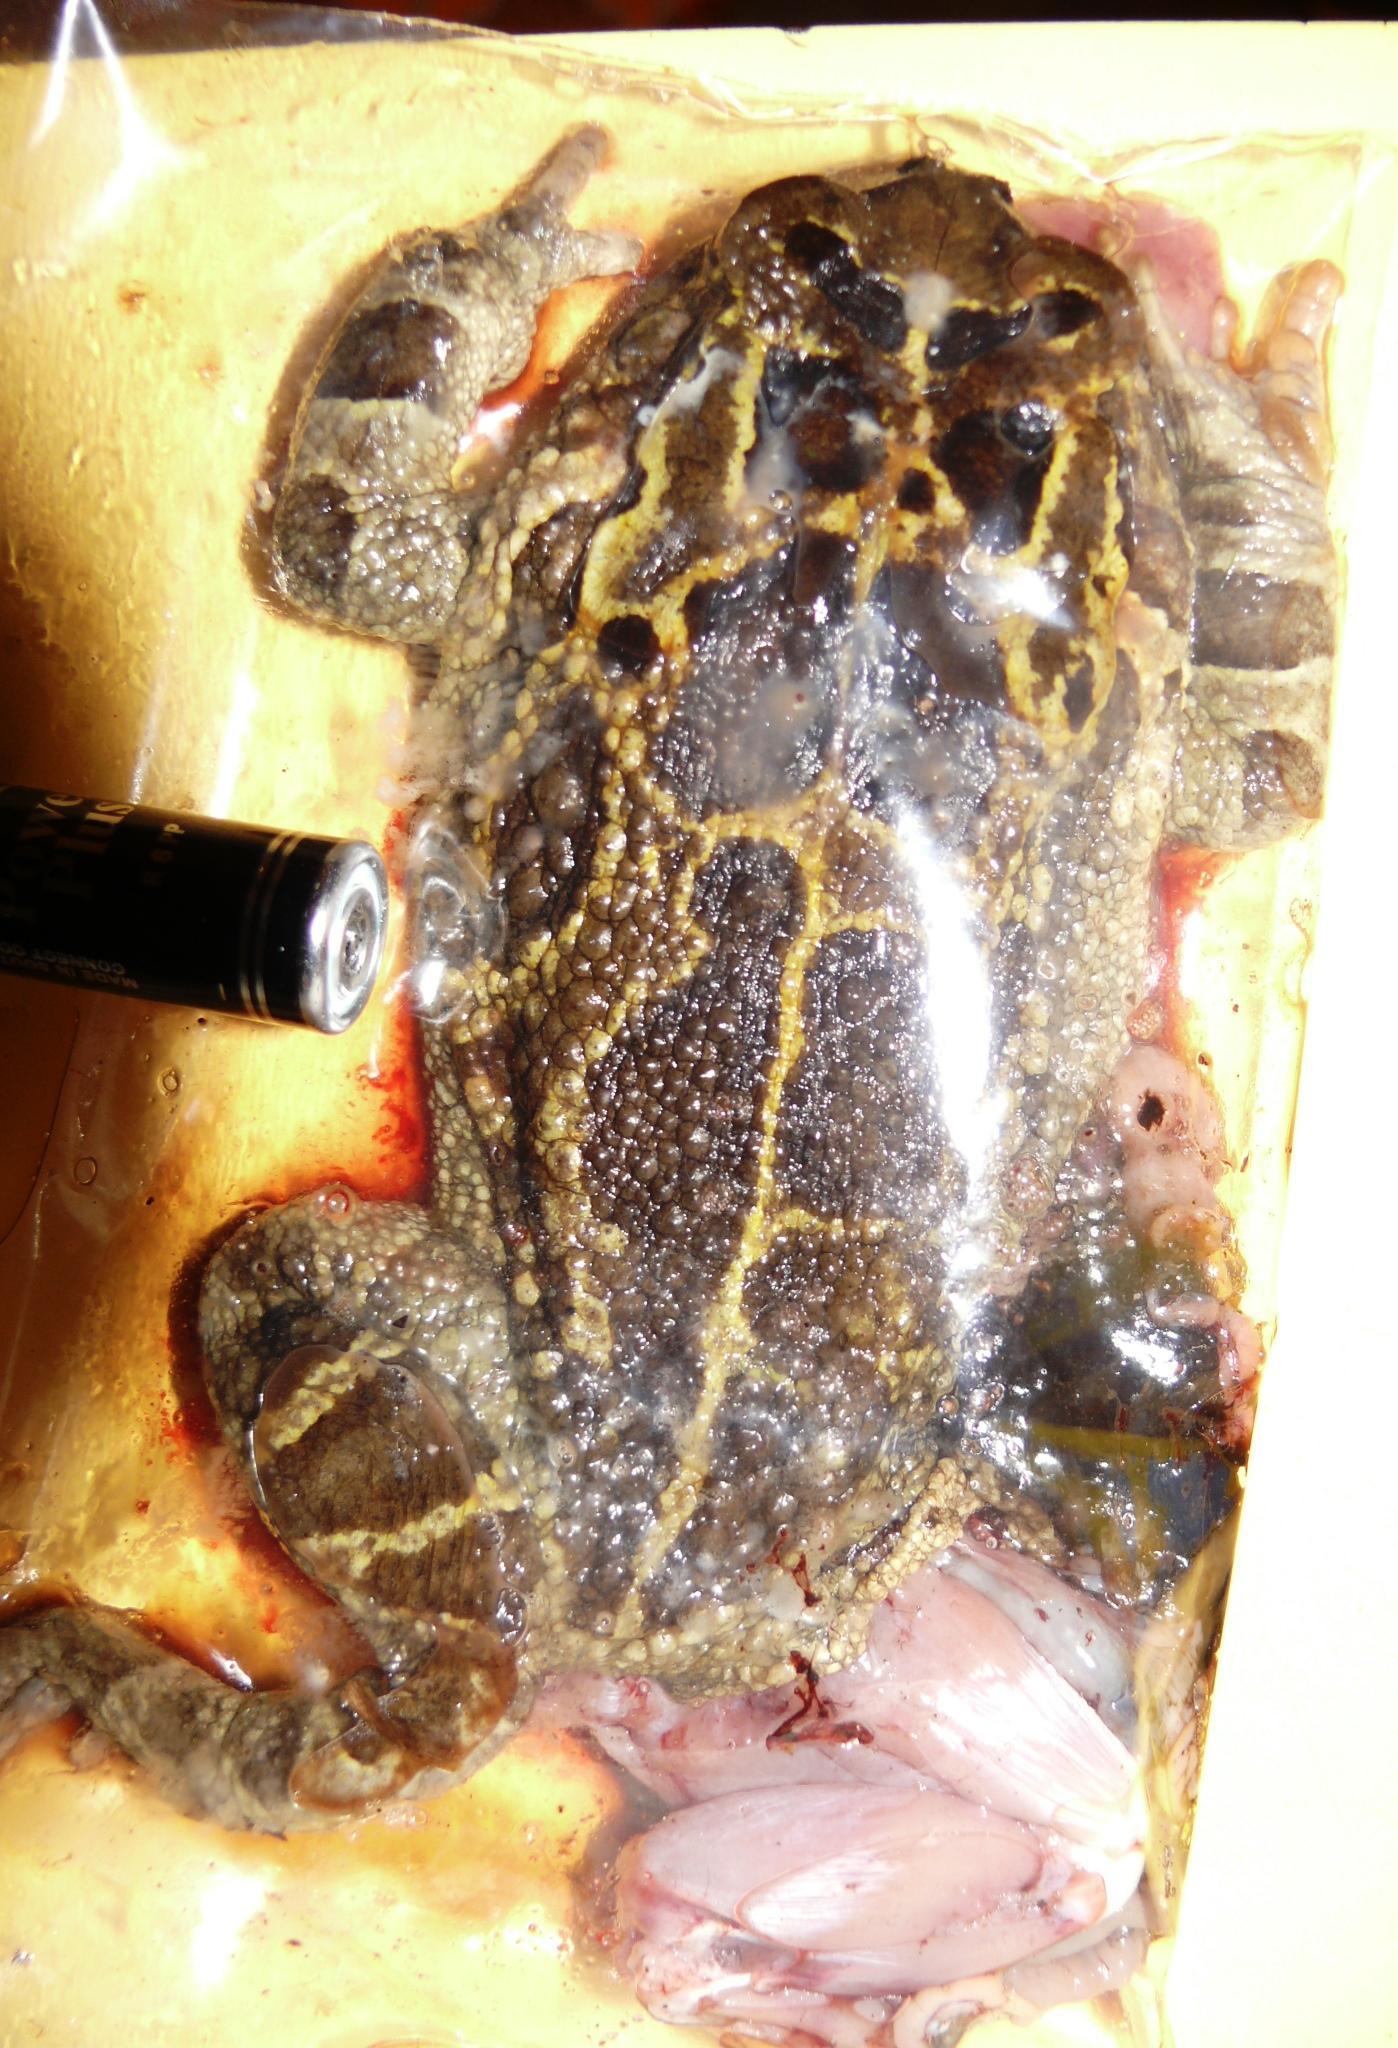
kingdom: Animalia
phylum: Chordata
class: Amphibia
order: Anura
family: Bufonidae
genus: Sclerophrys
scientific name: Sclerophrys pantherina
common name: Panther toad
